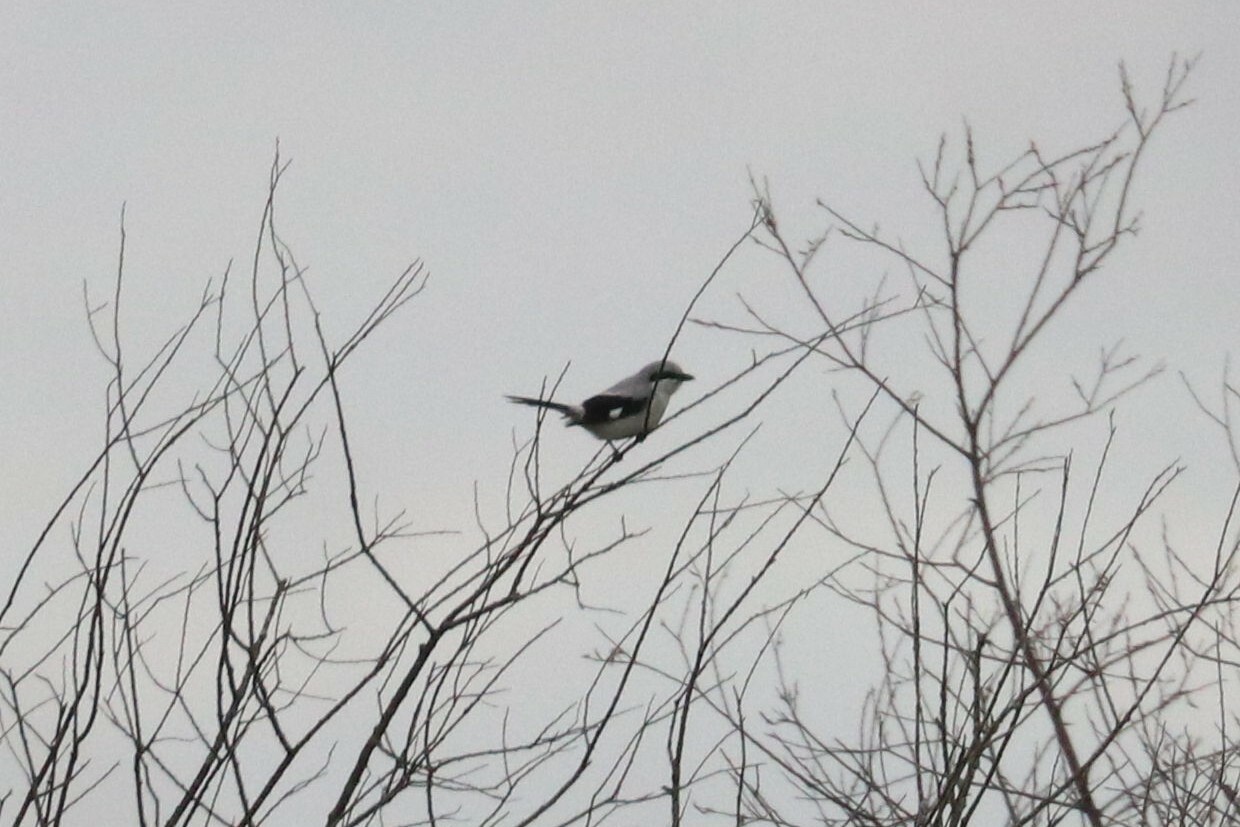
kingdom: Animalia
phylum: Chordata
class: Aves
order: Passeriformes
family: Laniidae
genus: Lanius
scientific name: Lanius excubitor
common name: Great grey shrike
